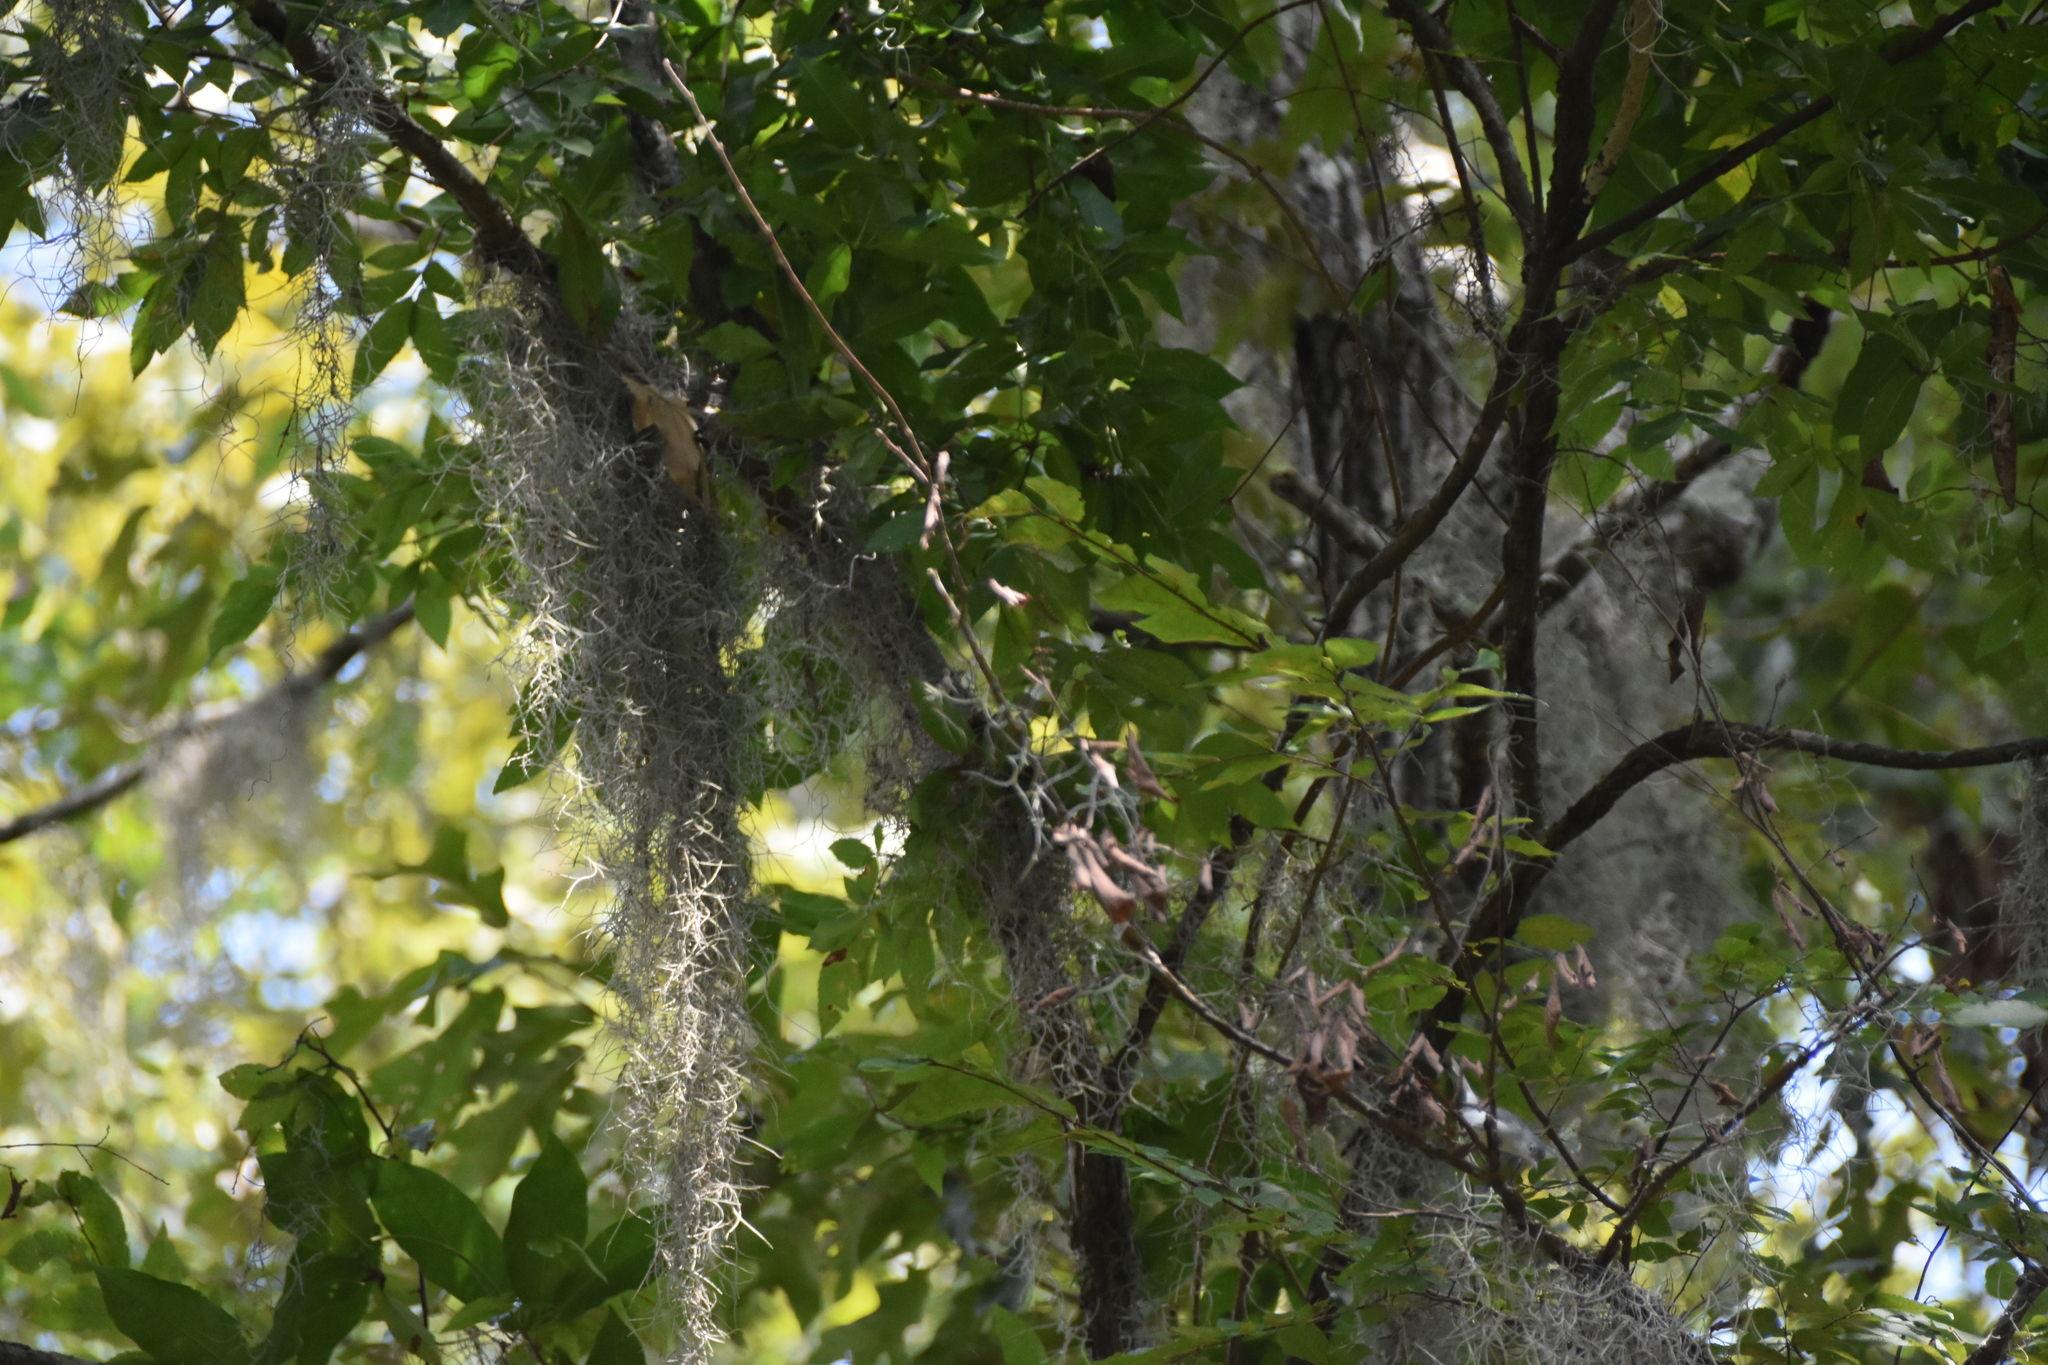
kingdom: Plantae
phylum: Tracheophyta
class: Liliopsida
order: Poales
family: Bromeliaceae
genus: Tillandsia
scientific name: Tillandsia usneoides
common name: Spanish moss
